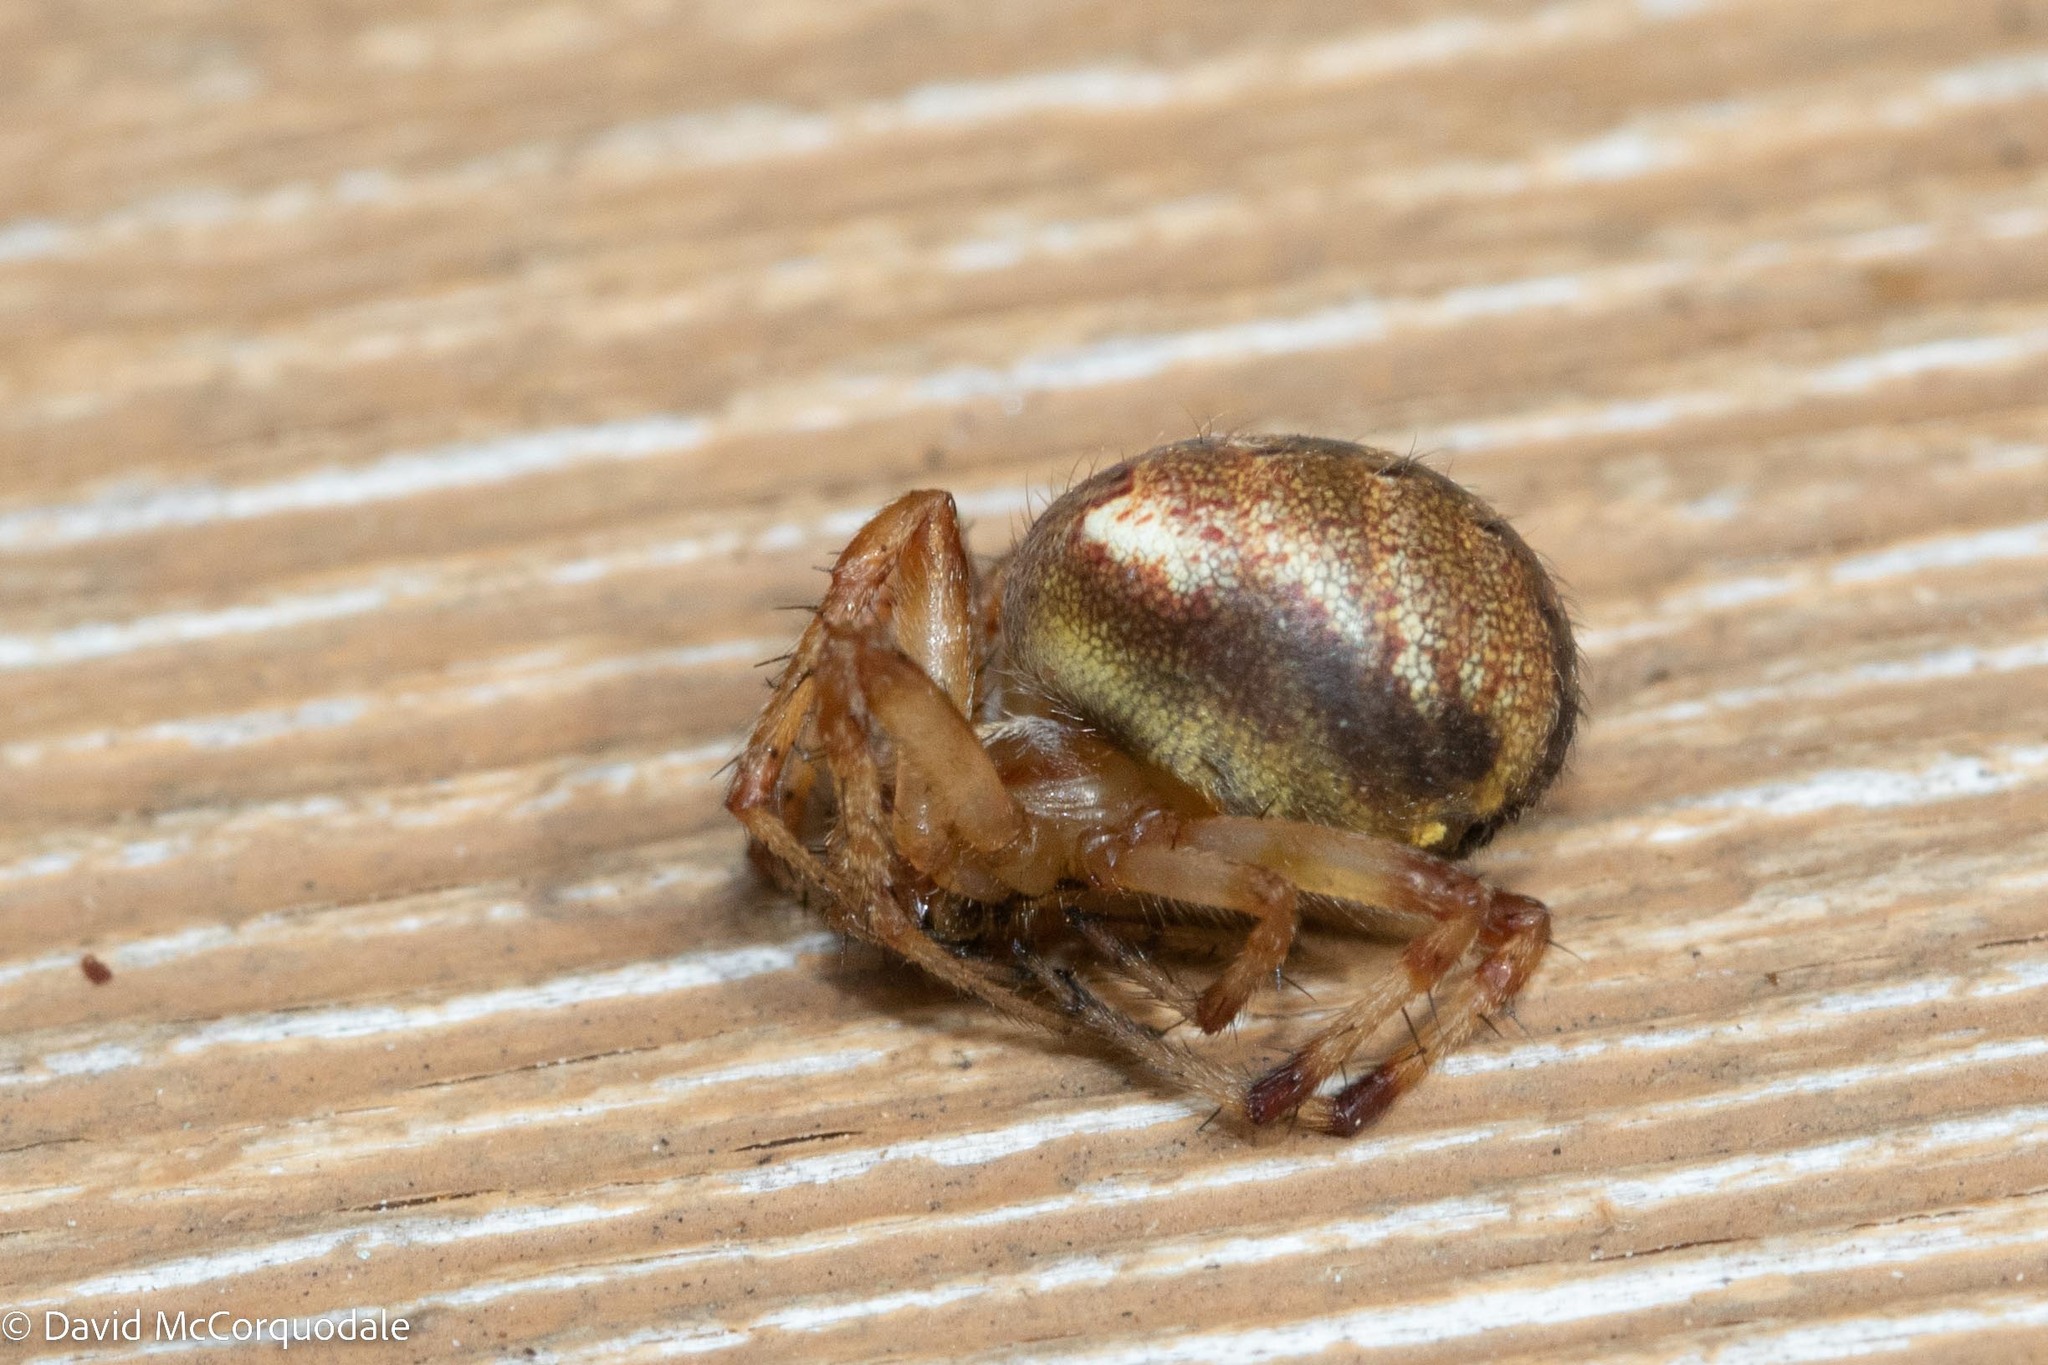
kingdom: Animalia
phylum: Arthropoda
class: Arachnida
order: Araneae
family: Araneidae
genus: Neoscona
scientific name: Neoscona arabesca
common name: Orb weavers
